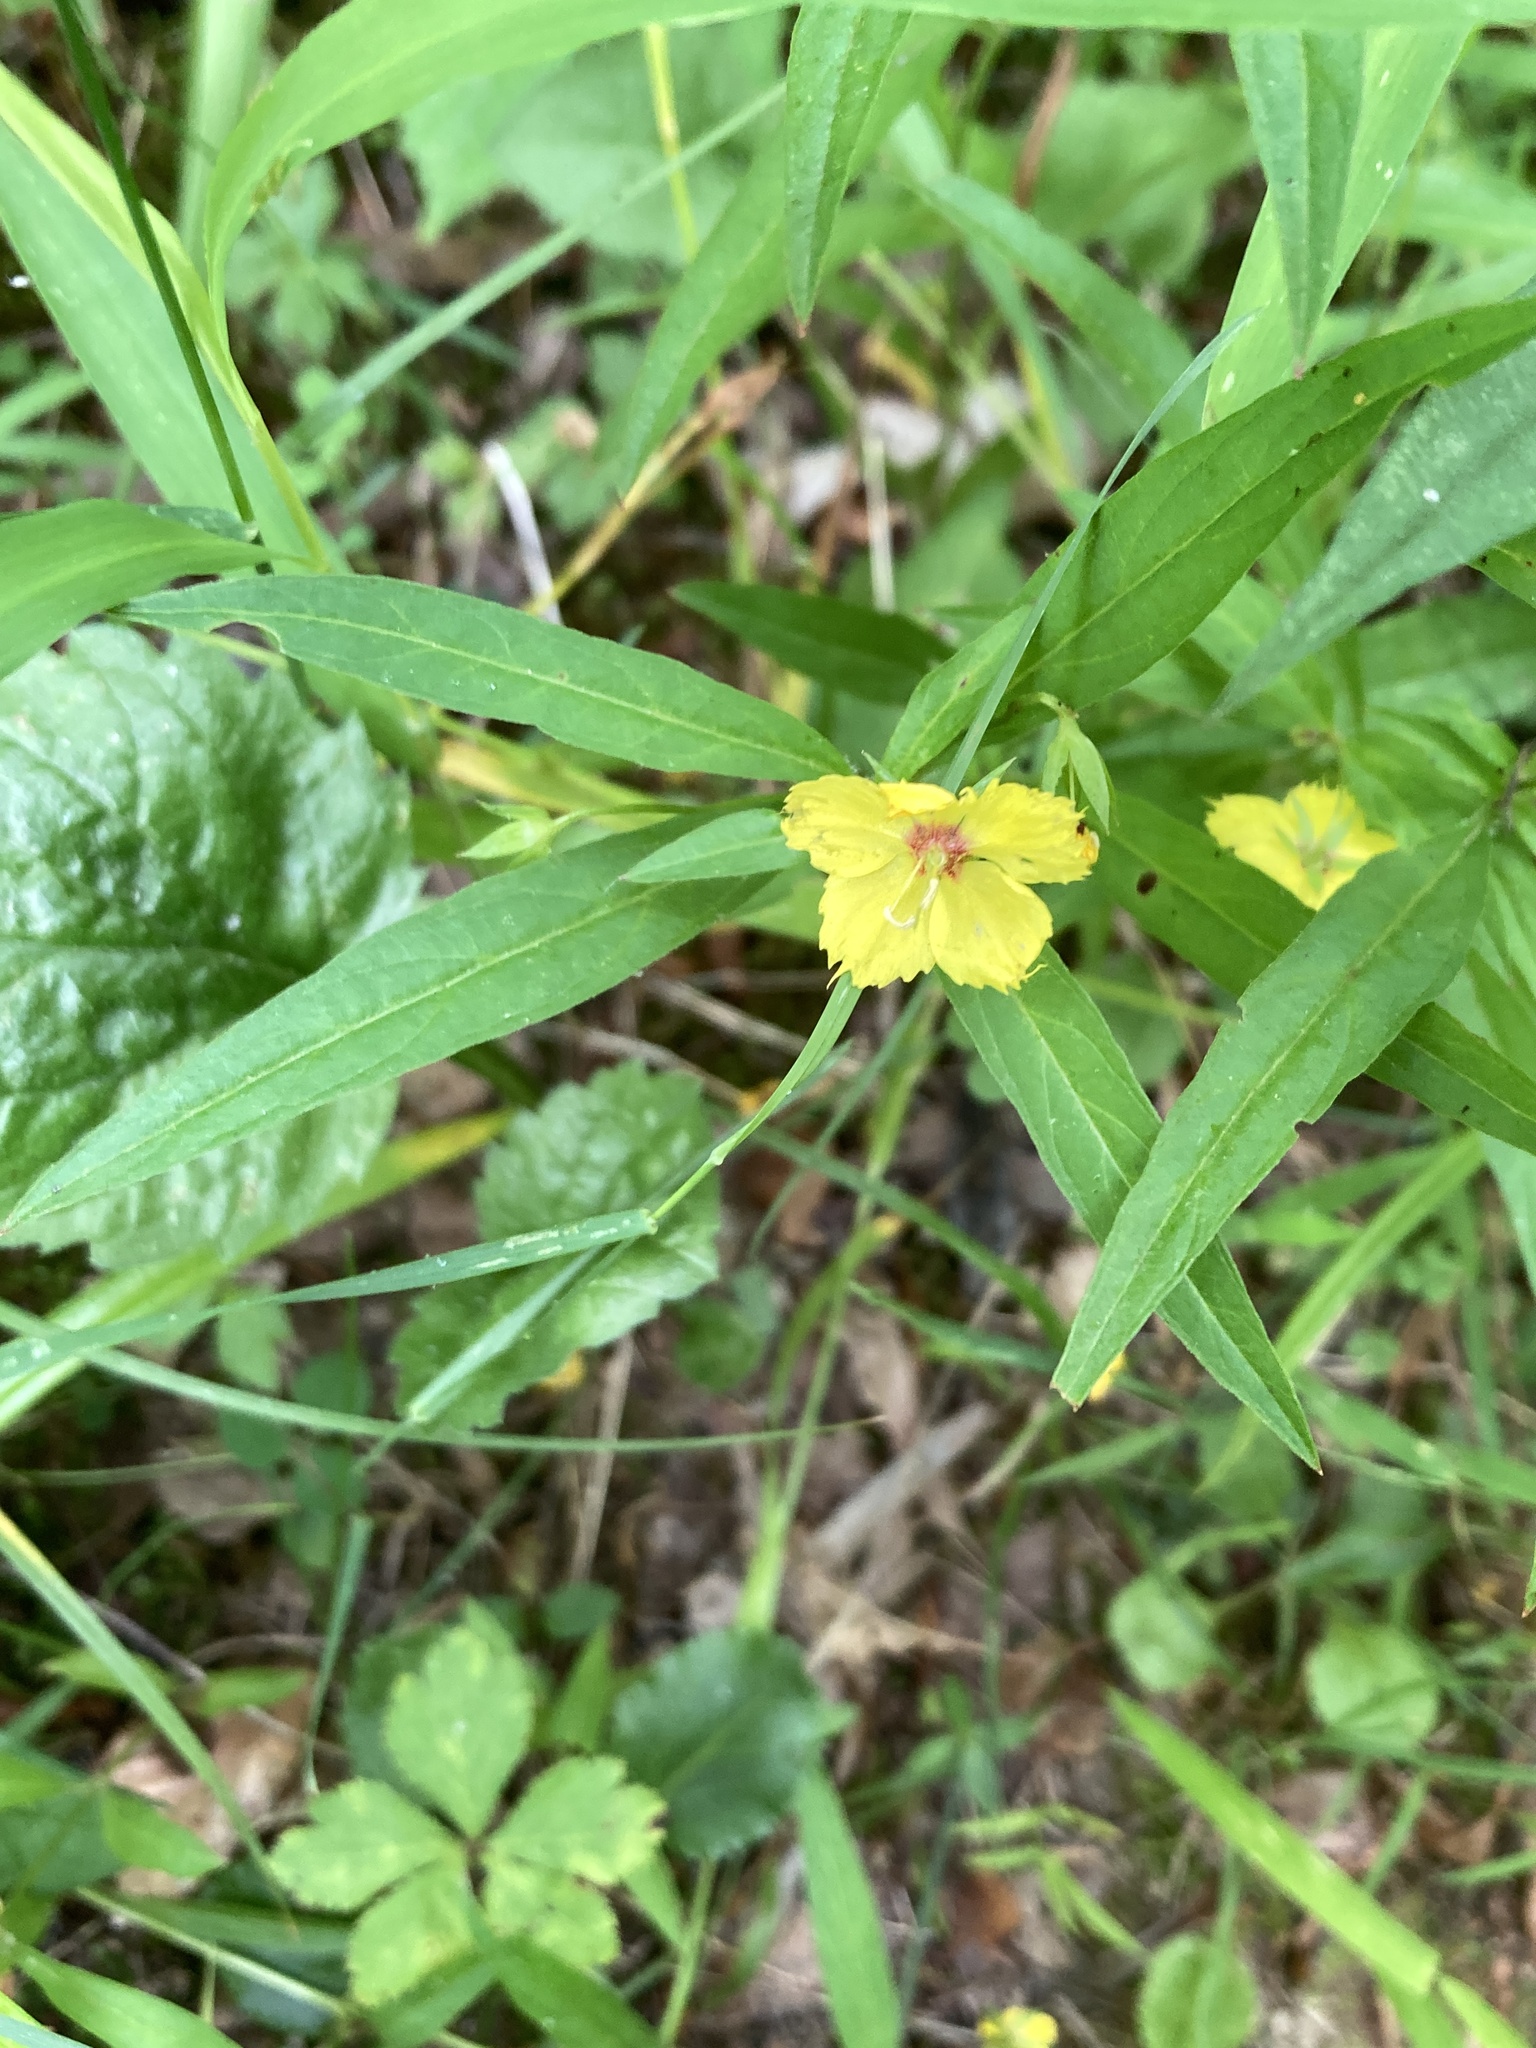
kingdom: Plantae
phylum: Tracheophyta
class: Magnoliopsida
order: Ericales
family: Primulaceae
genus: Lysimachia
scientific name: Lysimachia lanceolata
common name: Lance-leaved loosestrife
